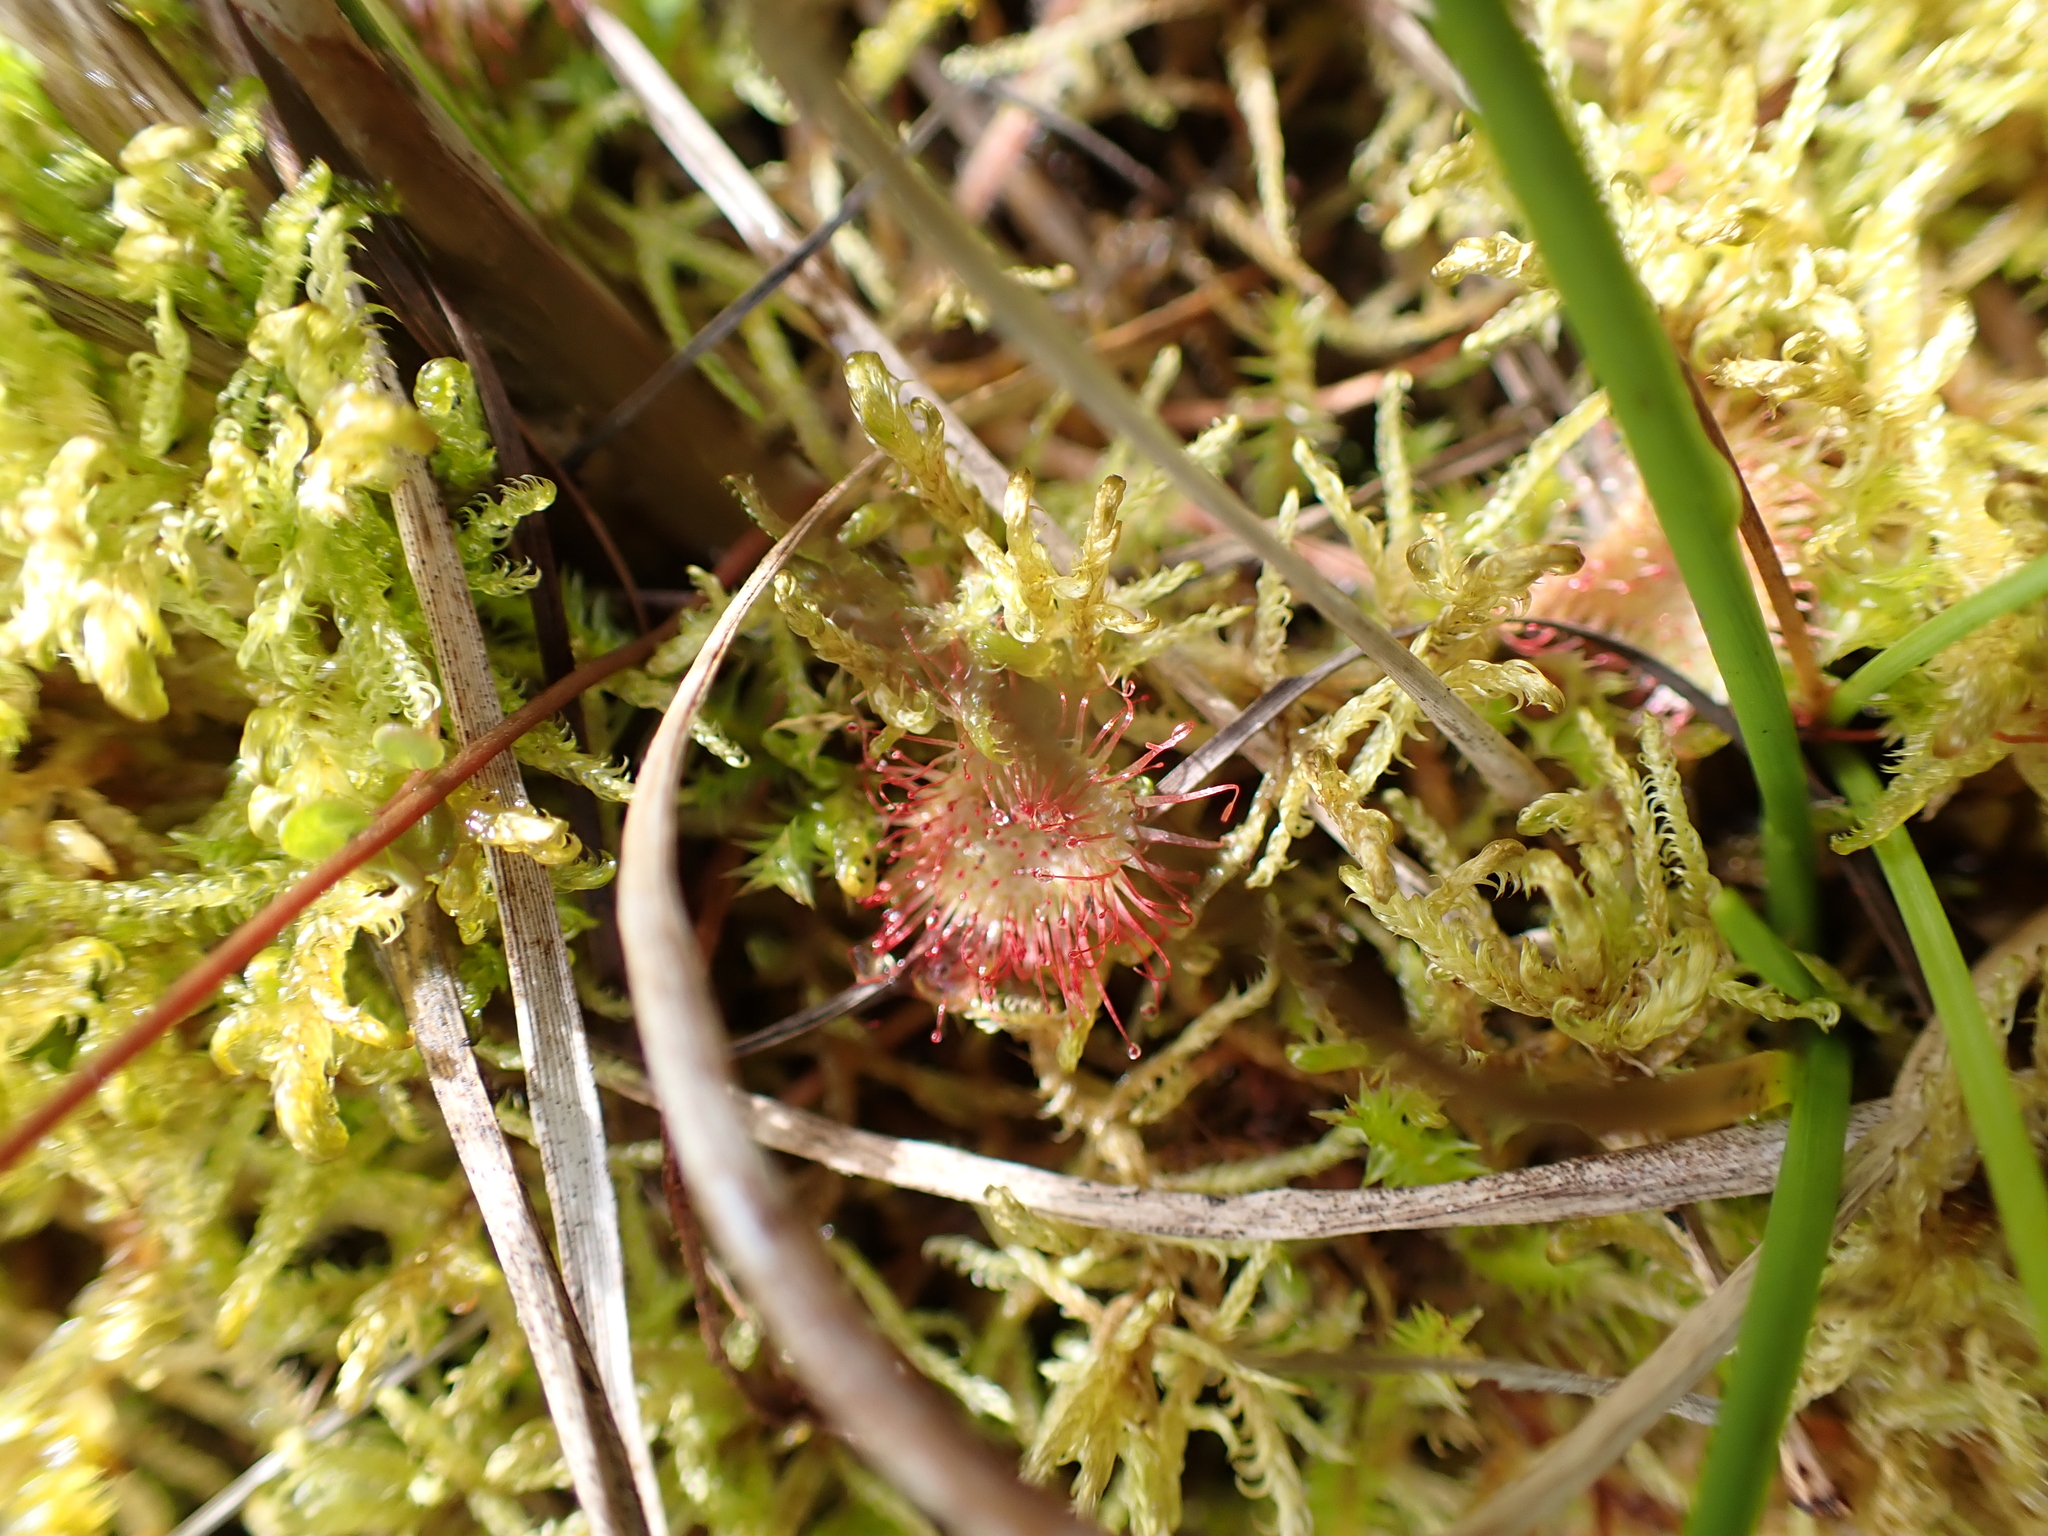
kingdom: Plantae
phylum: Tracheophyta
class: Magnoliopsida
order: Caryophyllales
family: Droseraceae
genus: Drosera
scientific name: Drosera rotundifolia
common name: Round-leaved sundew
